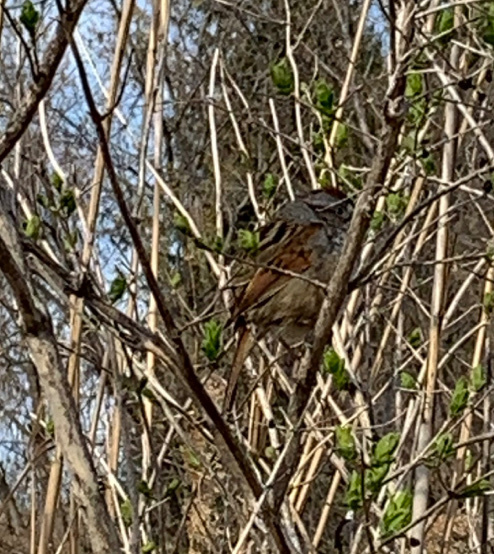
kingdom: Animalia
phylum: Chordata
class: Aves
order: Passeriformes
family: Passerellidae
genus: Melospiza
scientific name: Melospiza georgiana
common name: Swamp sparrow
